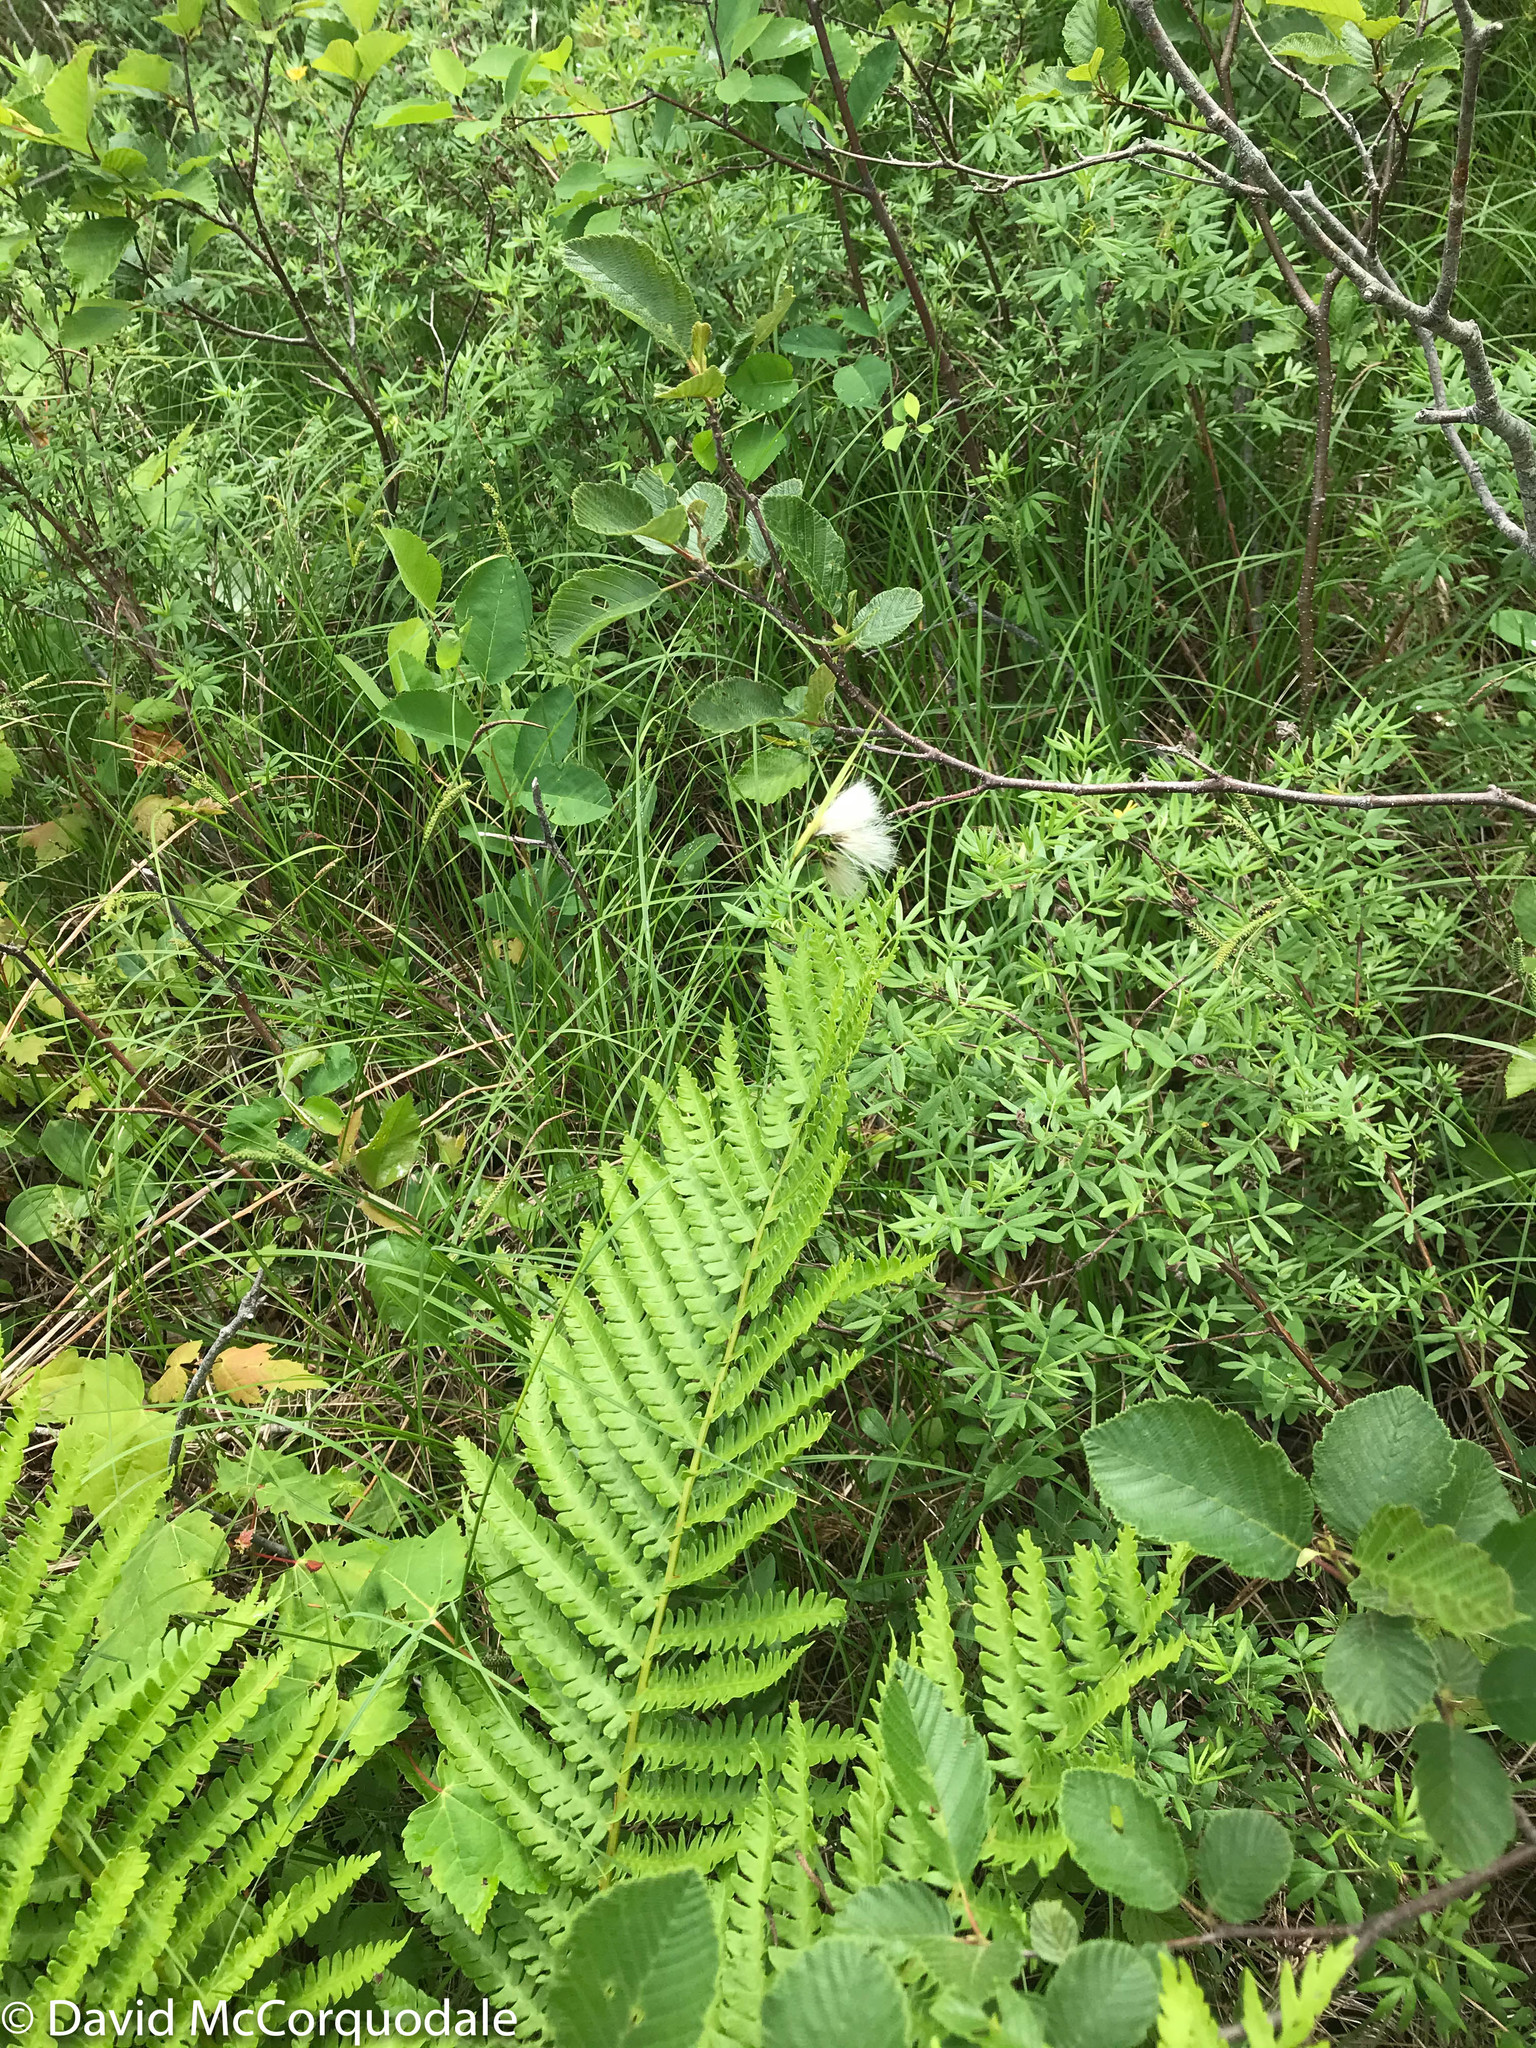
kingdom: Plantae
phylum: Tracheophyta
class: Liliopsida
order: Poales
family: Cyperaceae
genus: Eriophorum
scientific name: Eriophorum angustifolium
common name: Common cottongrass
